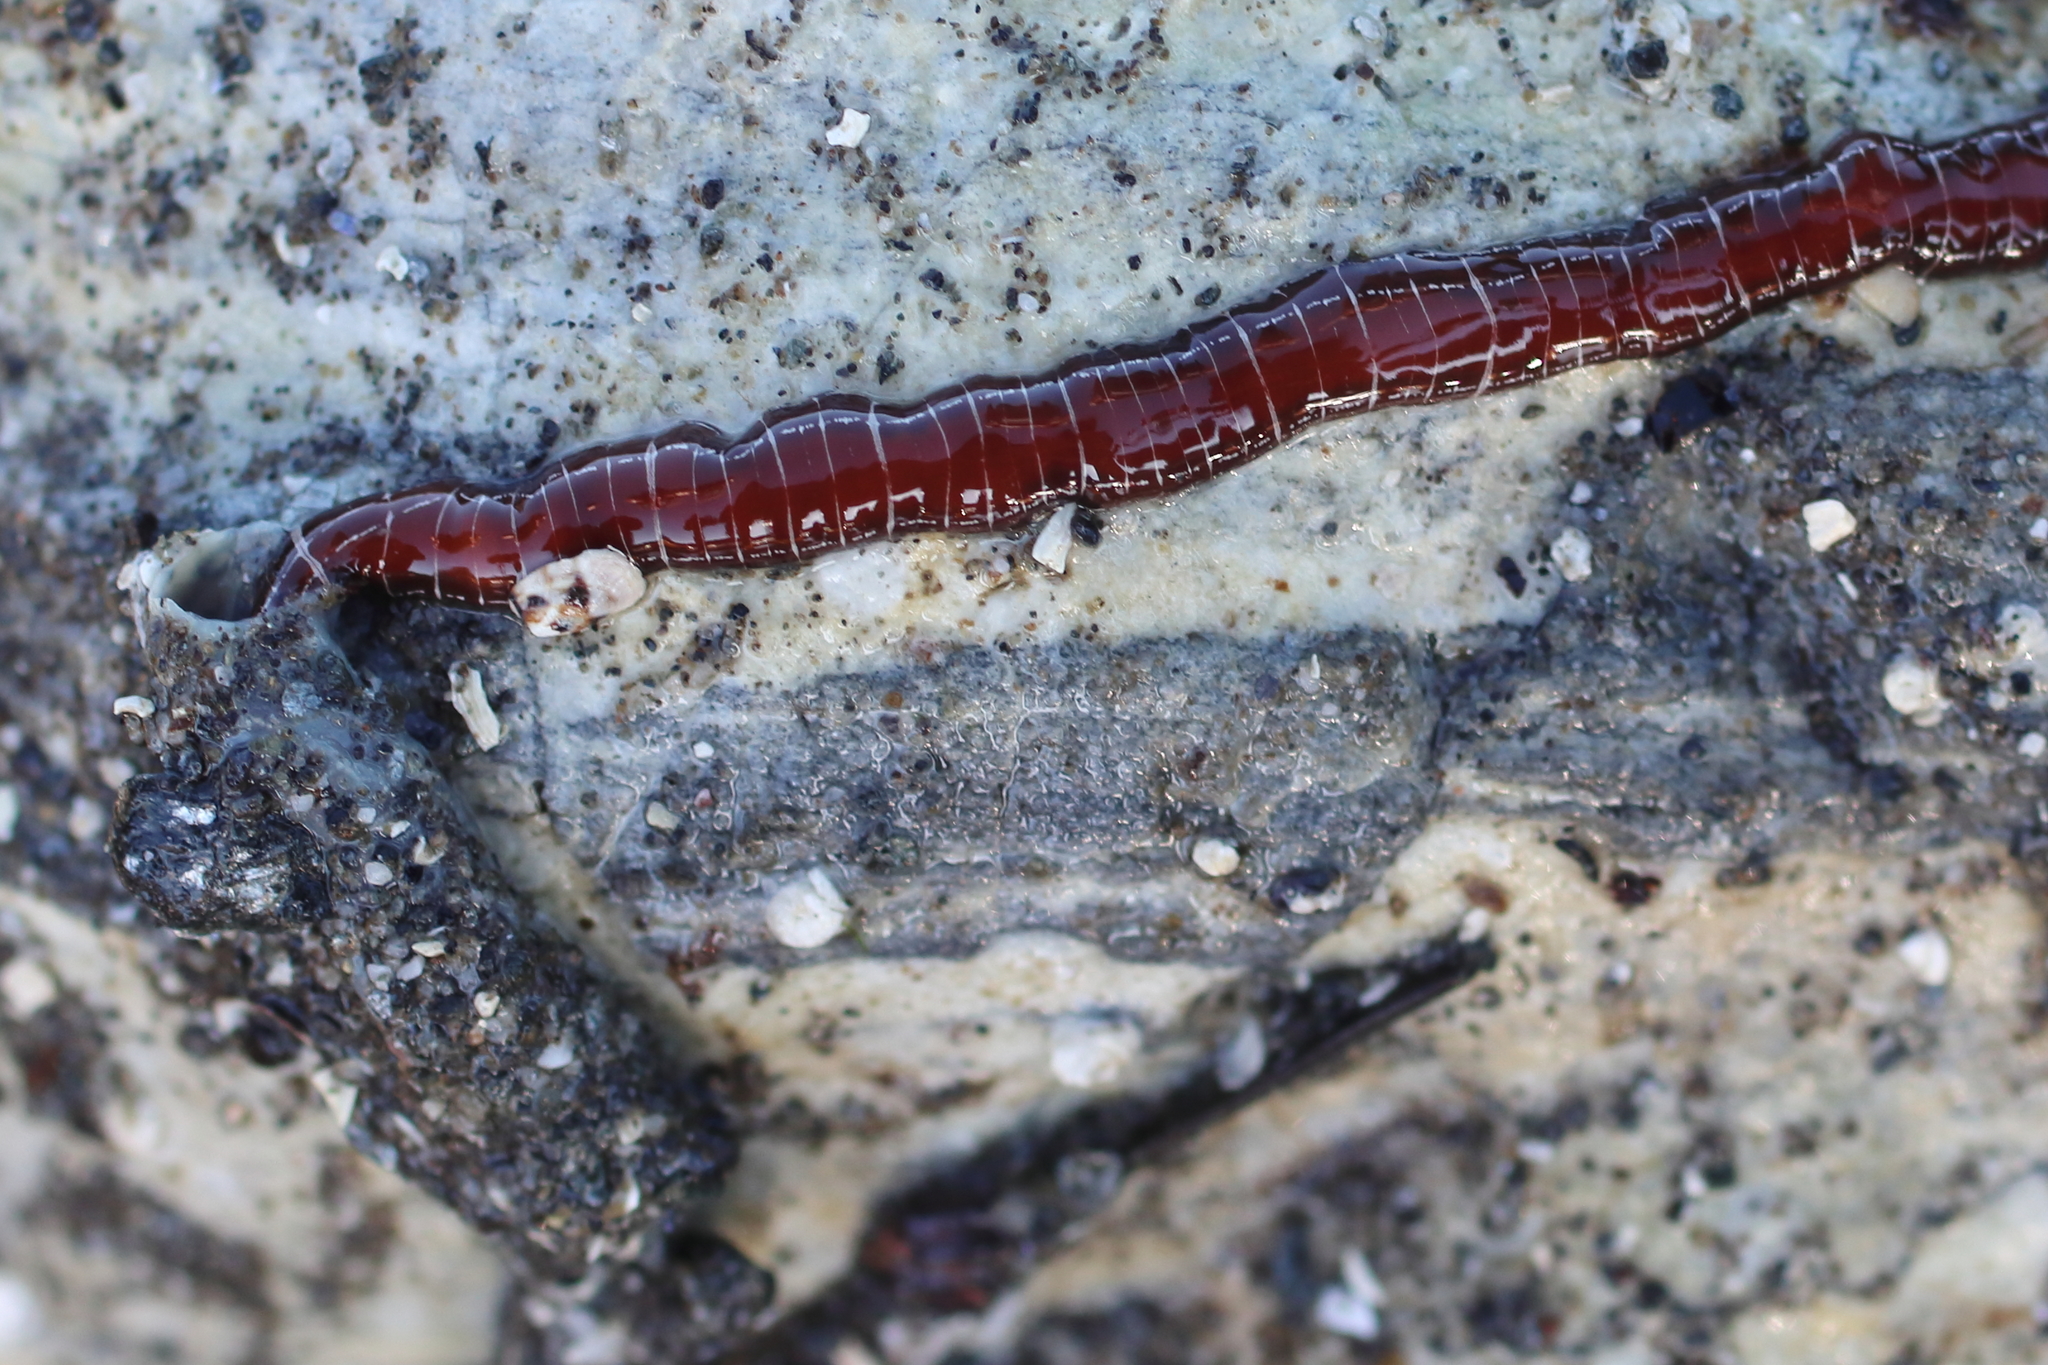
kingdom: Animalia
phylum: Nemertea
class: Palaeonemertea
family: Tubulanidae
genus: Tubulanus
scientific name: Tubulanus albocinctus
